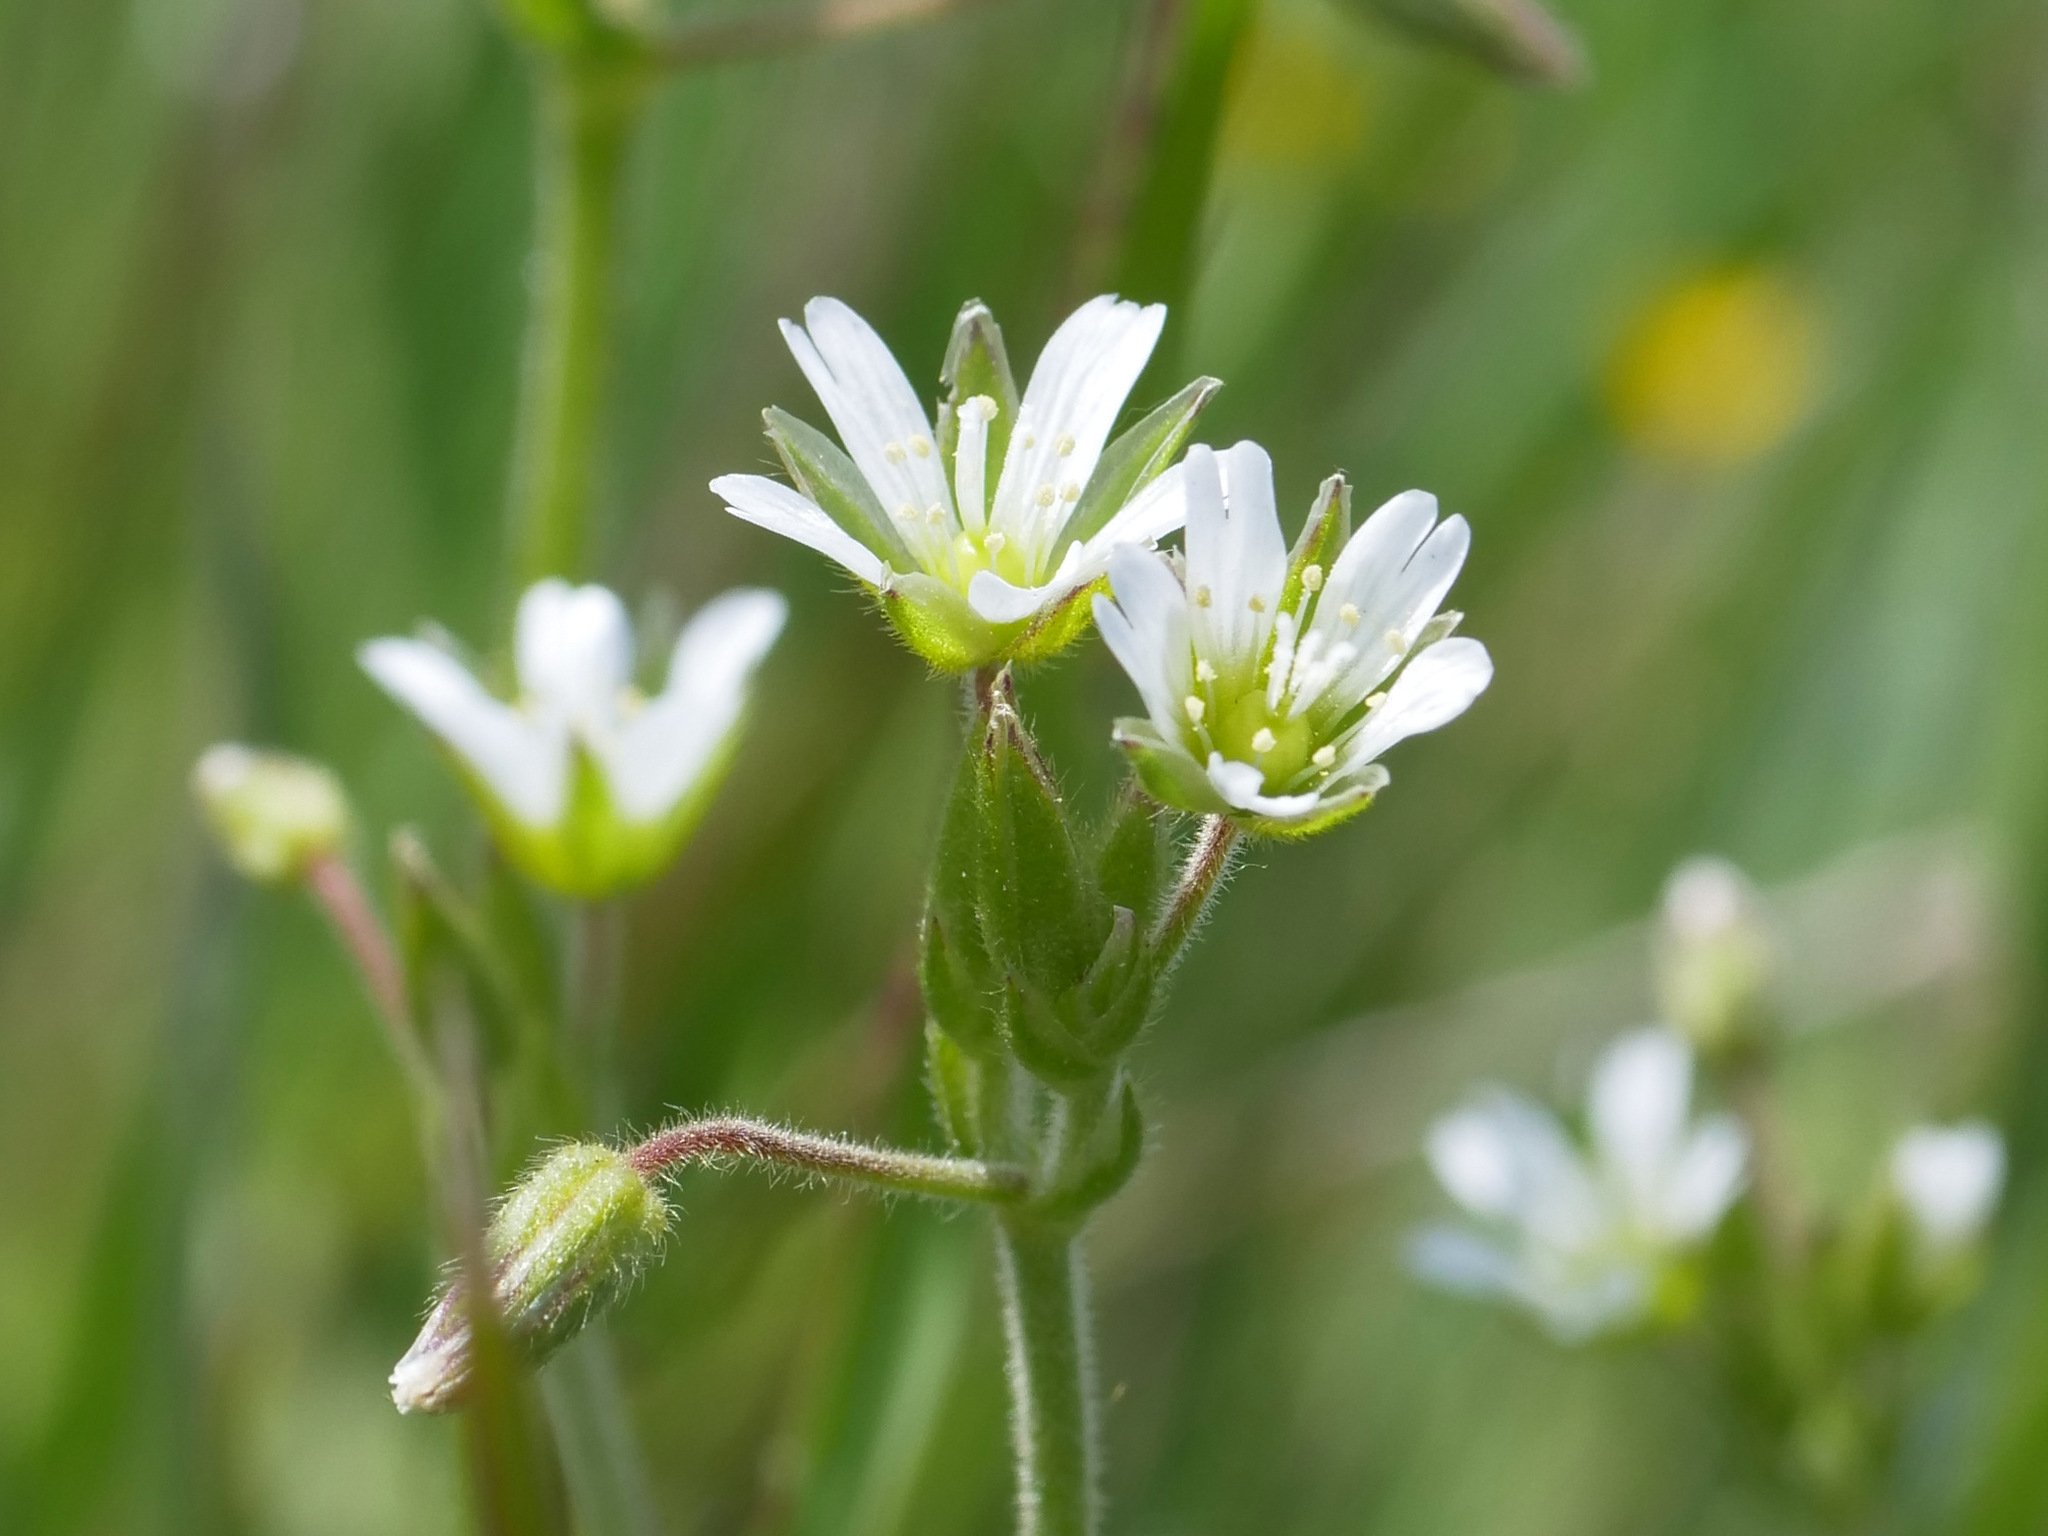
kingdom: Plantae
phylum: Tracheophyta
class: Magnoliopsida
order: Caryophyllales
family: Caryophyllaceae
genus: Cerastium
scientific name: Cerastium holosteoides
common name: Big chickweed
